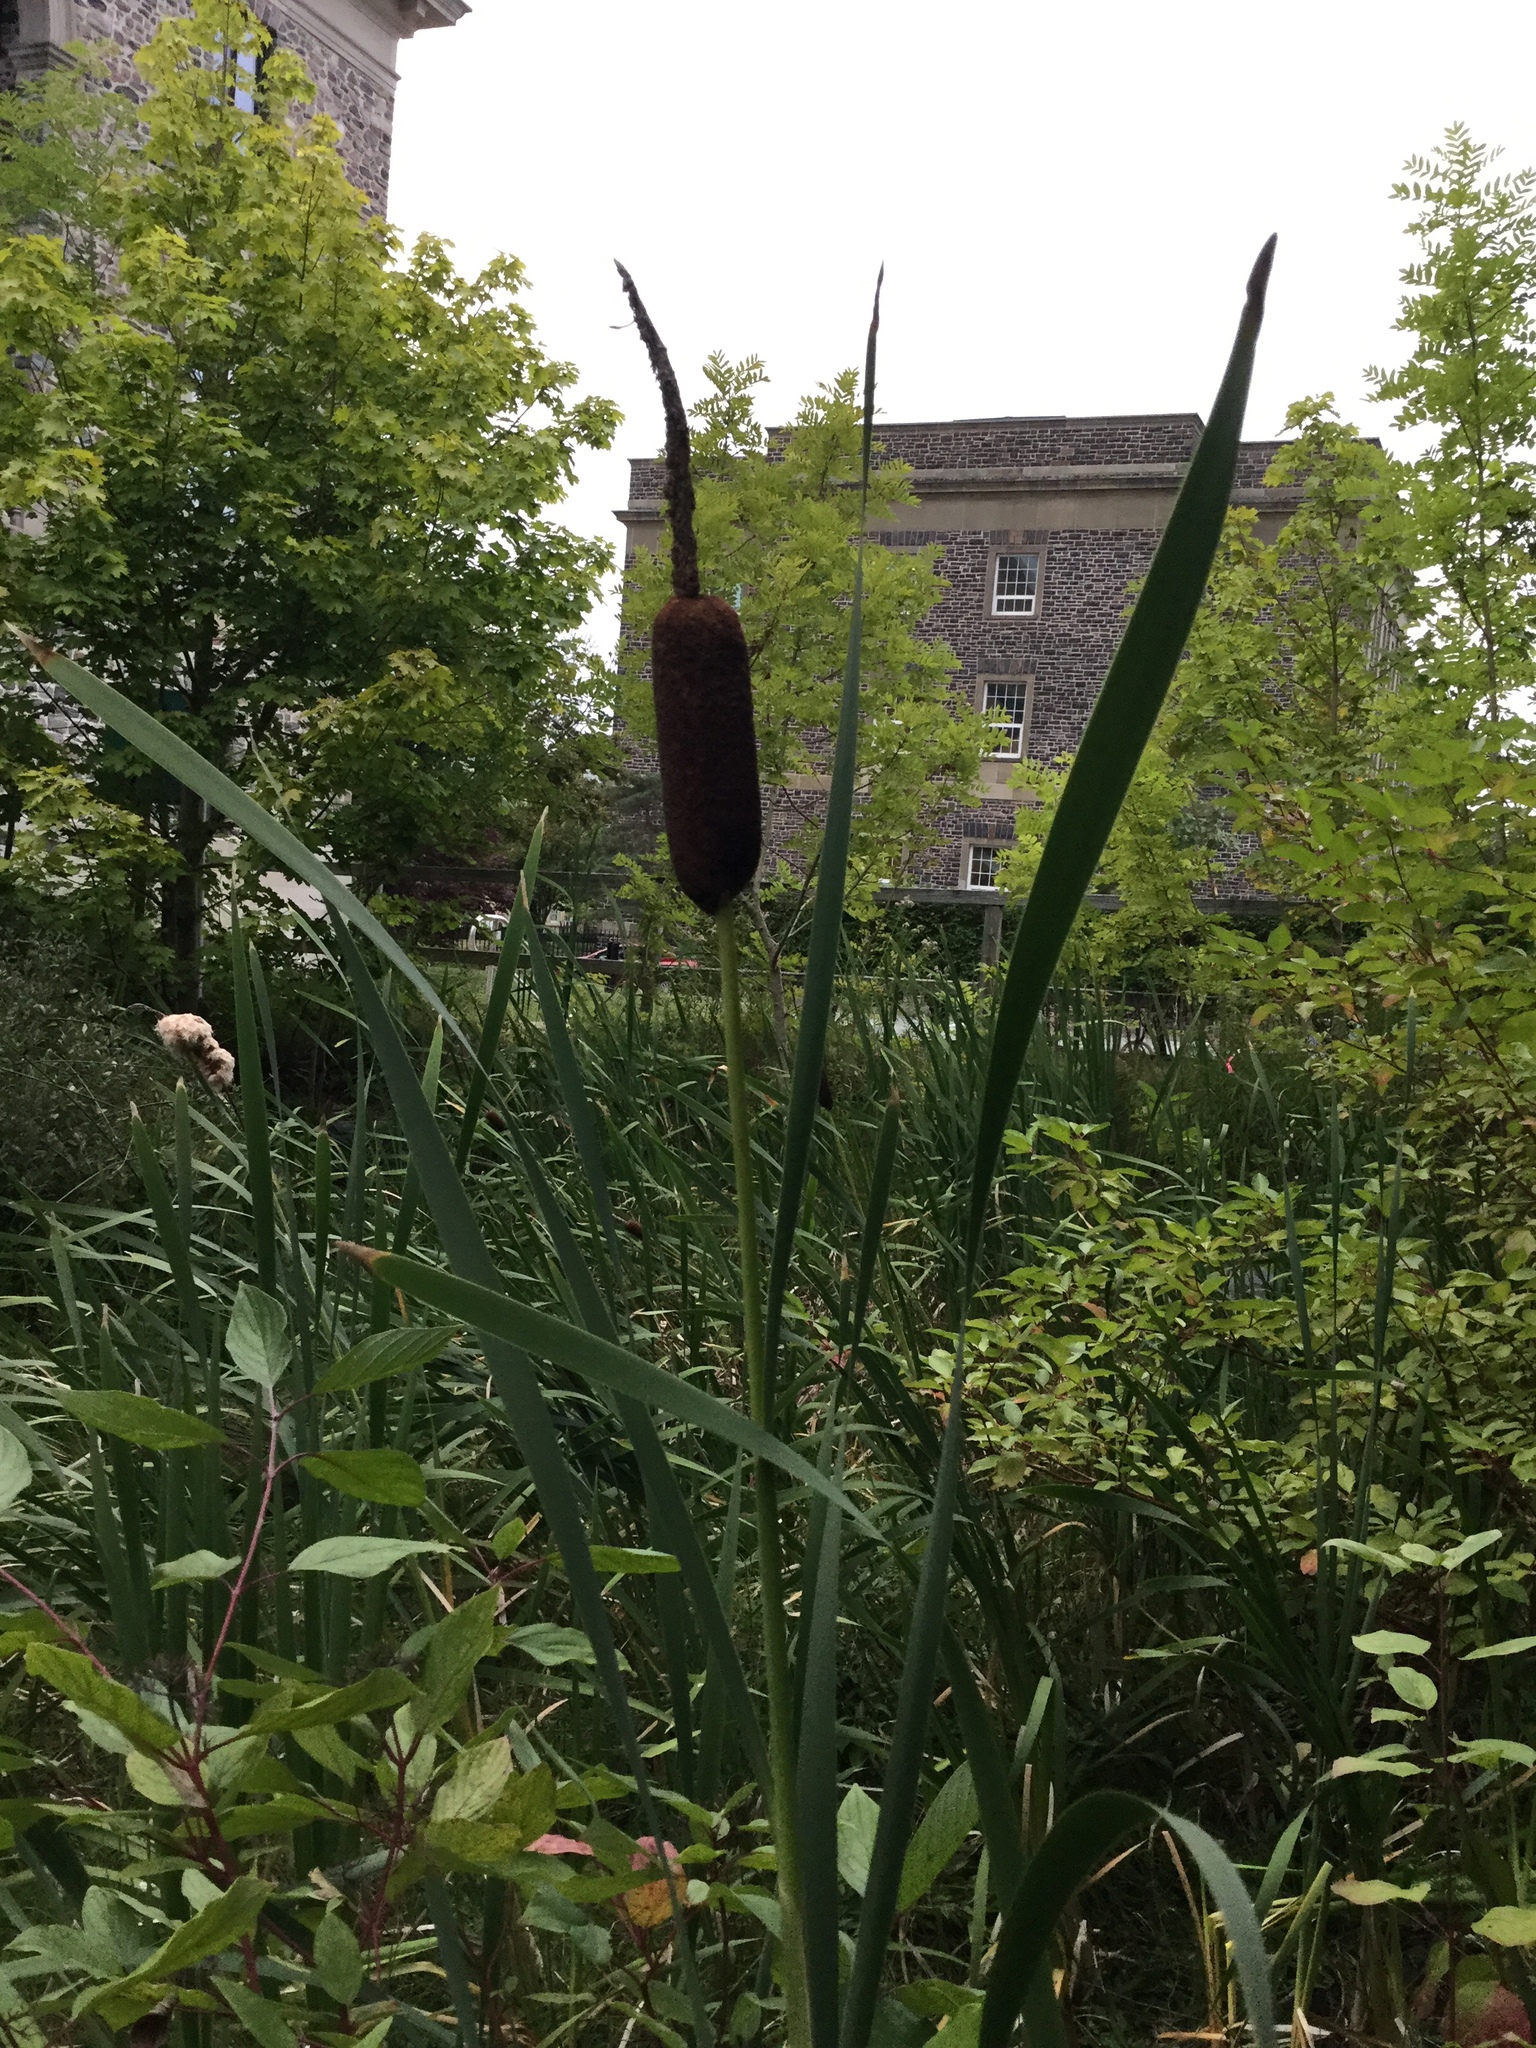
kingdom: Plantae
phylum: Tracheophyta
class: Liliopsida
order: Poales
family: Typhaceae
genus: Typha
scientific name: Typha latifolia
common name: Broadleaf cattail
